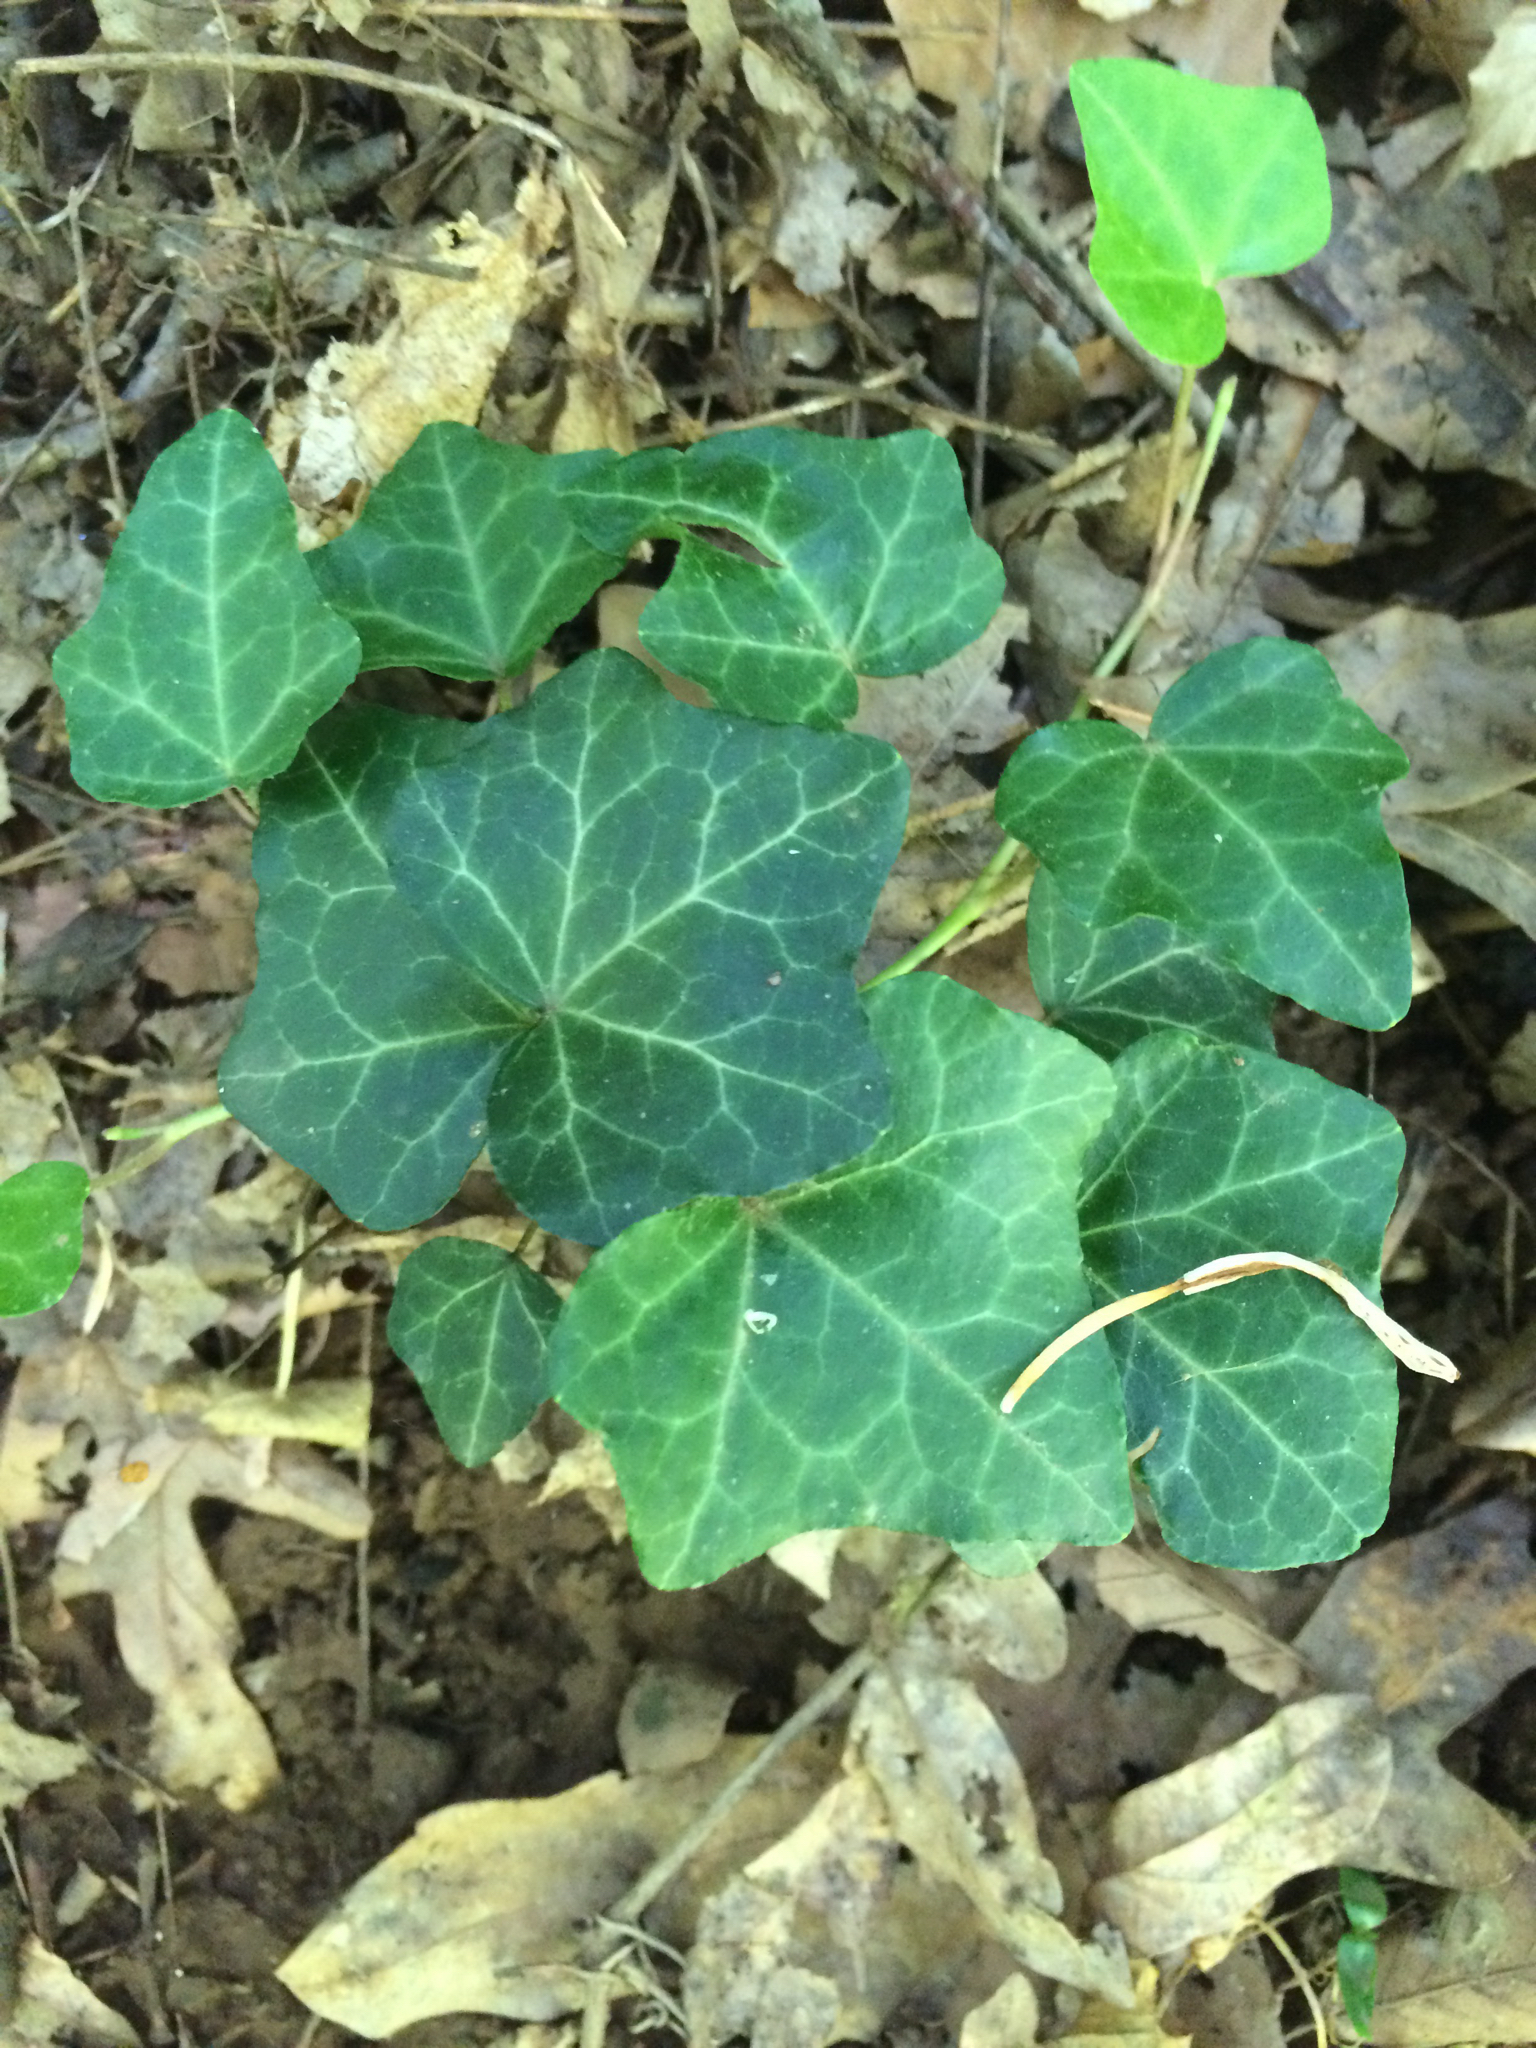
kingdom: Plantae
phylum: Tracheophyta
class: Magnoliopsida
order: Apiales
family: Araliaceae
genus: Hedera
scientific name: Hedera helix
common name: Ivy
